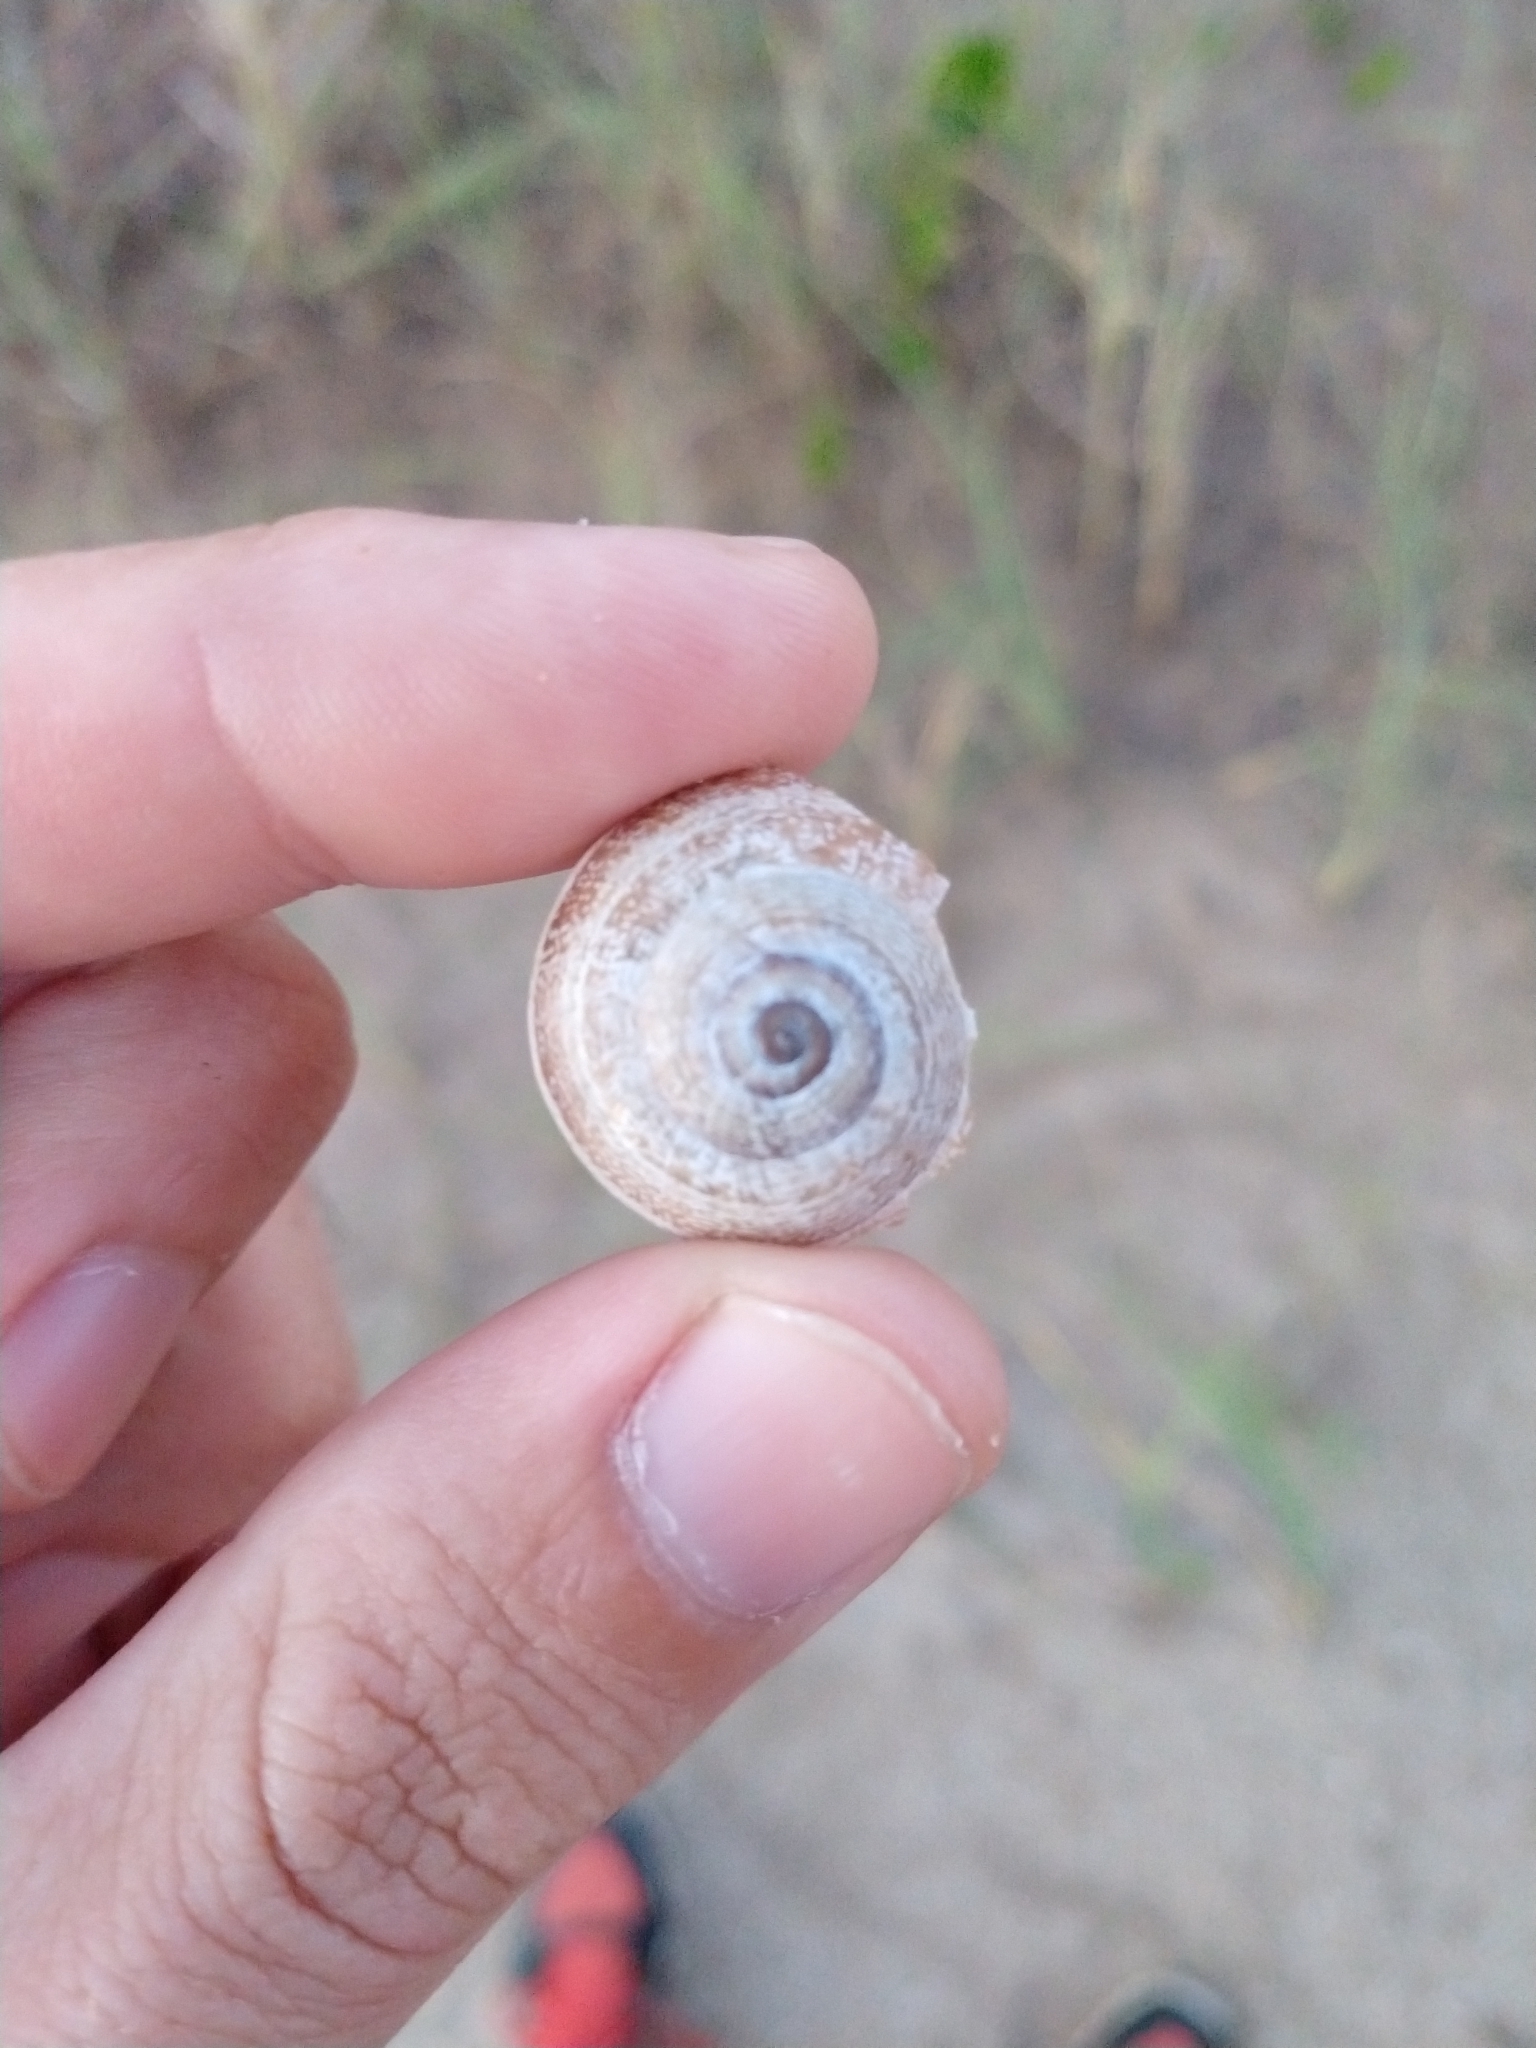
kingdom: Animalia
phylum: Mollusca
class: Gastropoda
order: Stylommatophora
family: Helicidae
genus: Otala
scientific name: Otala punctata
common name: Milk snail
